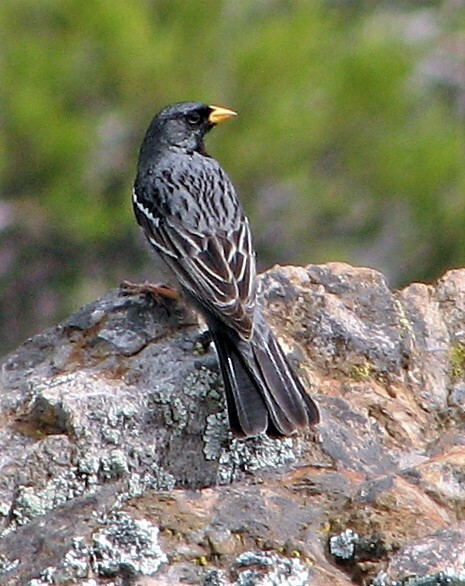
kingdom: Animalia
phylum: Chordata
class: Aves
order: Passeriformes
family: Thraupidae
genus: Rhopospina
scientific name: Rhopospina fruticeti
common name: Mourning sierra finch
